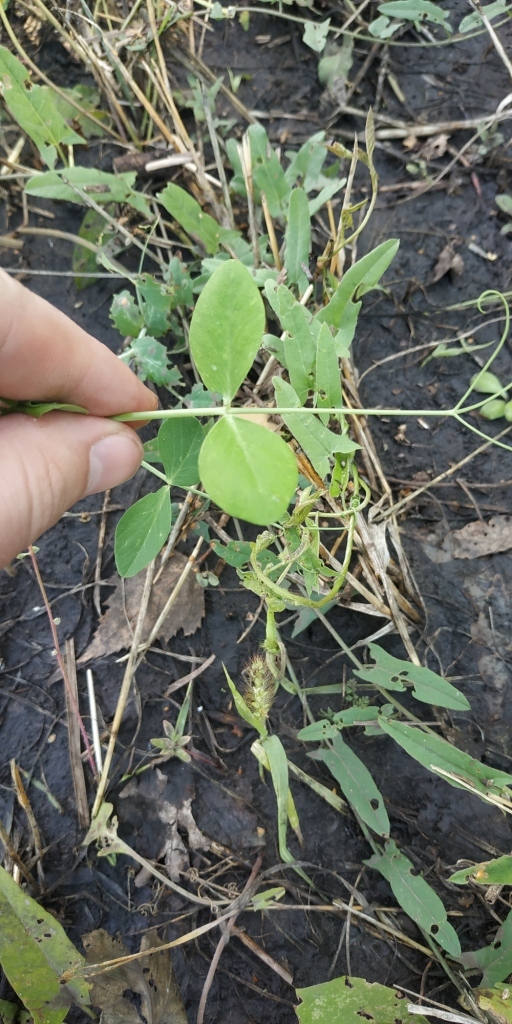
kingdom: Plantae
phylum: Tracheophyta
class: Magnoliopsida
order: Fabales
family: Fabaceae
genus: Lathyrus
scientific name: Lathyrus oleraceus
